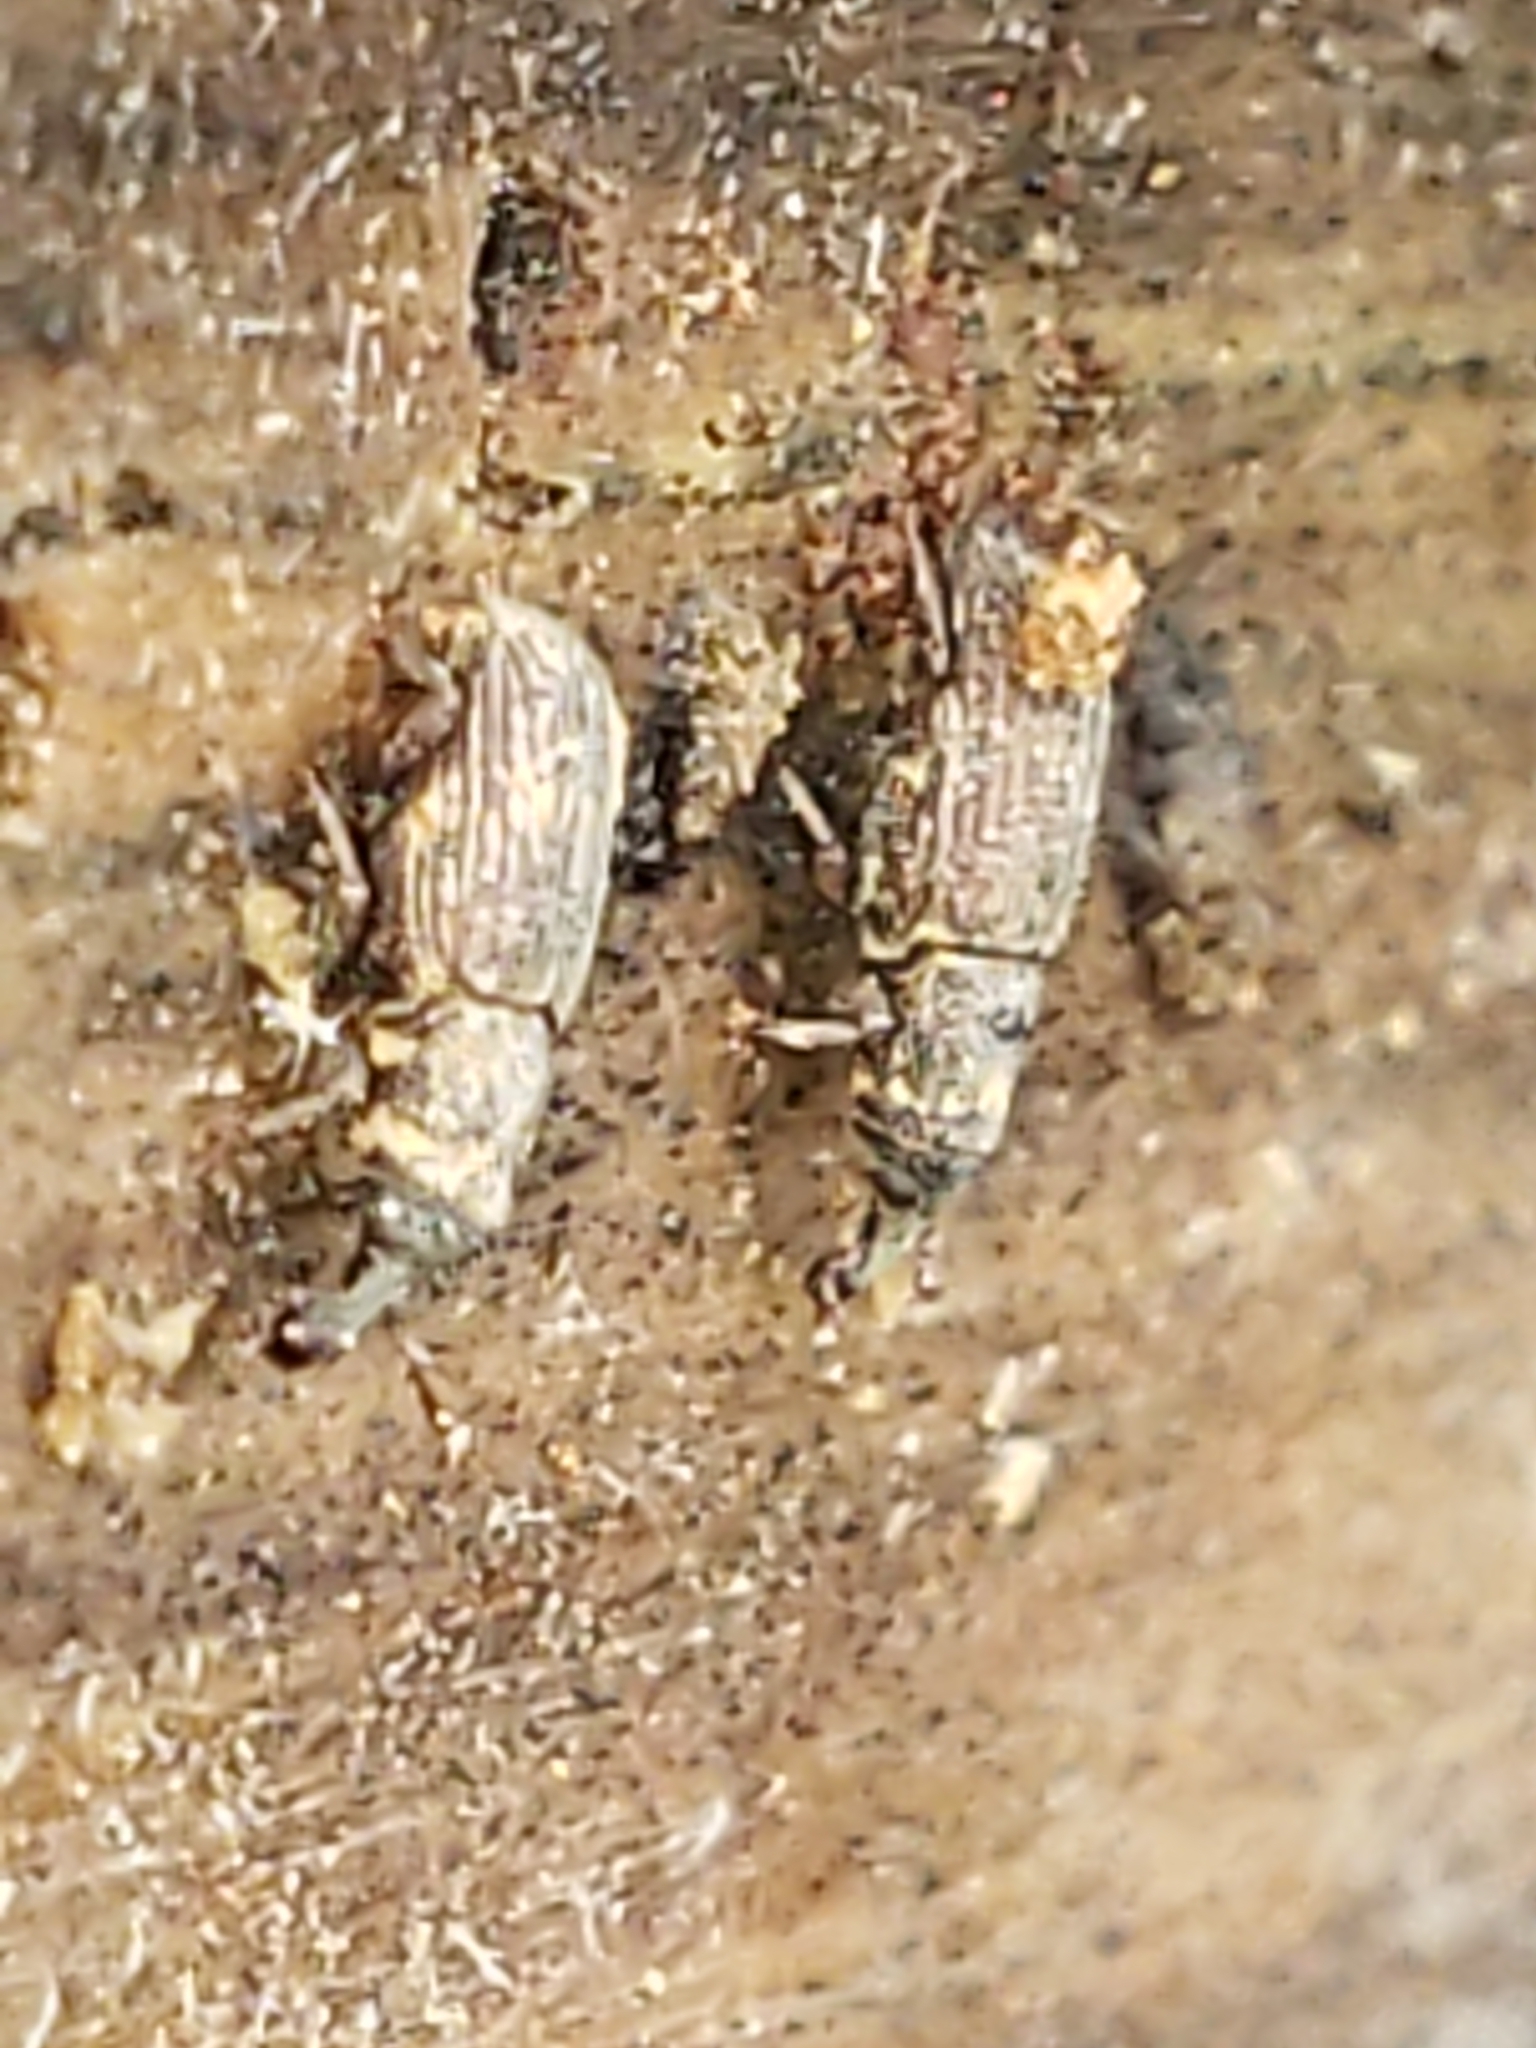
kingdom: Animalia
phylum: Arthropoda
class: Insecta
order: Coleoptera
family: Dryophthoridae
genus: Dryophthorus
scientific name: Dryophthorus americanus
